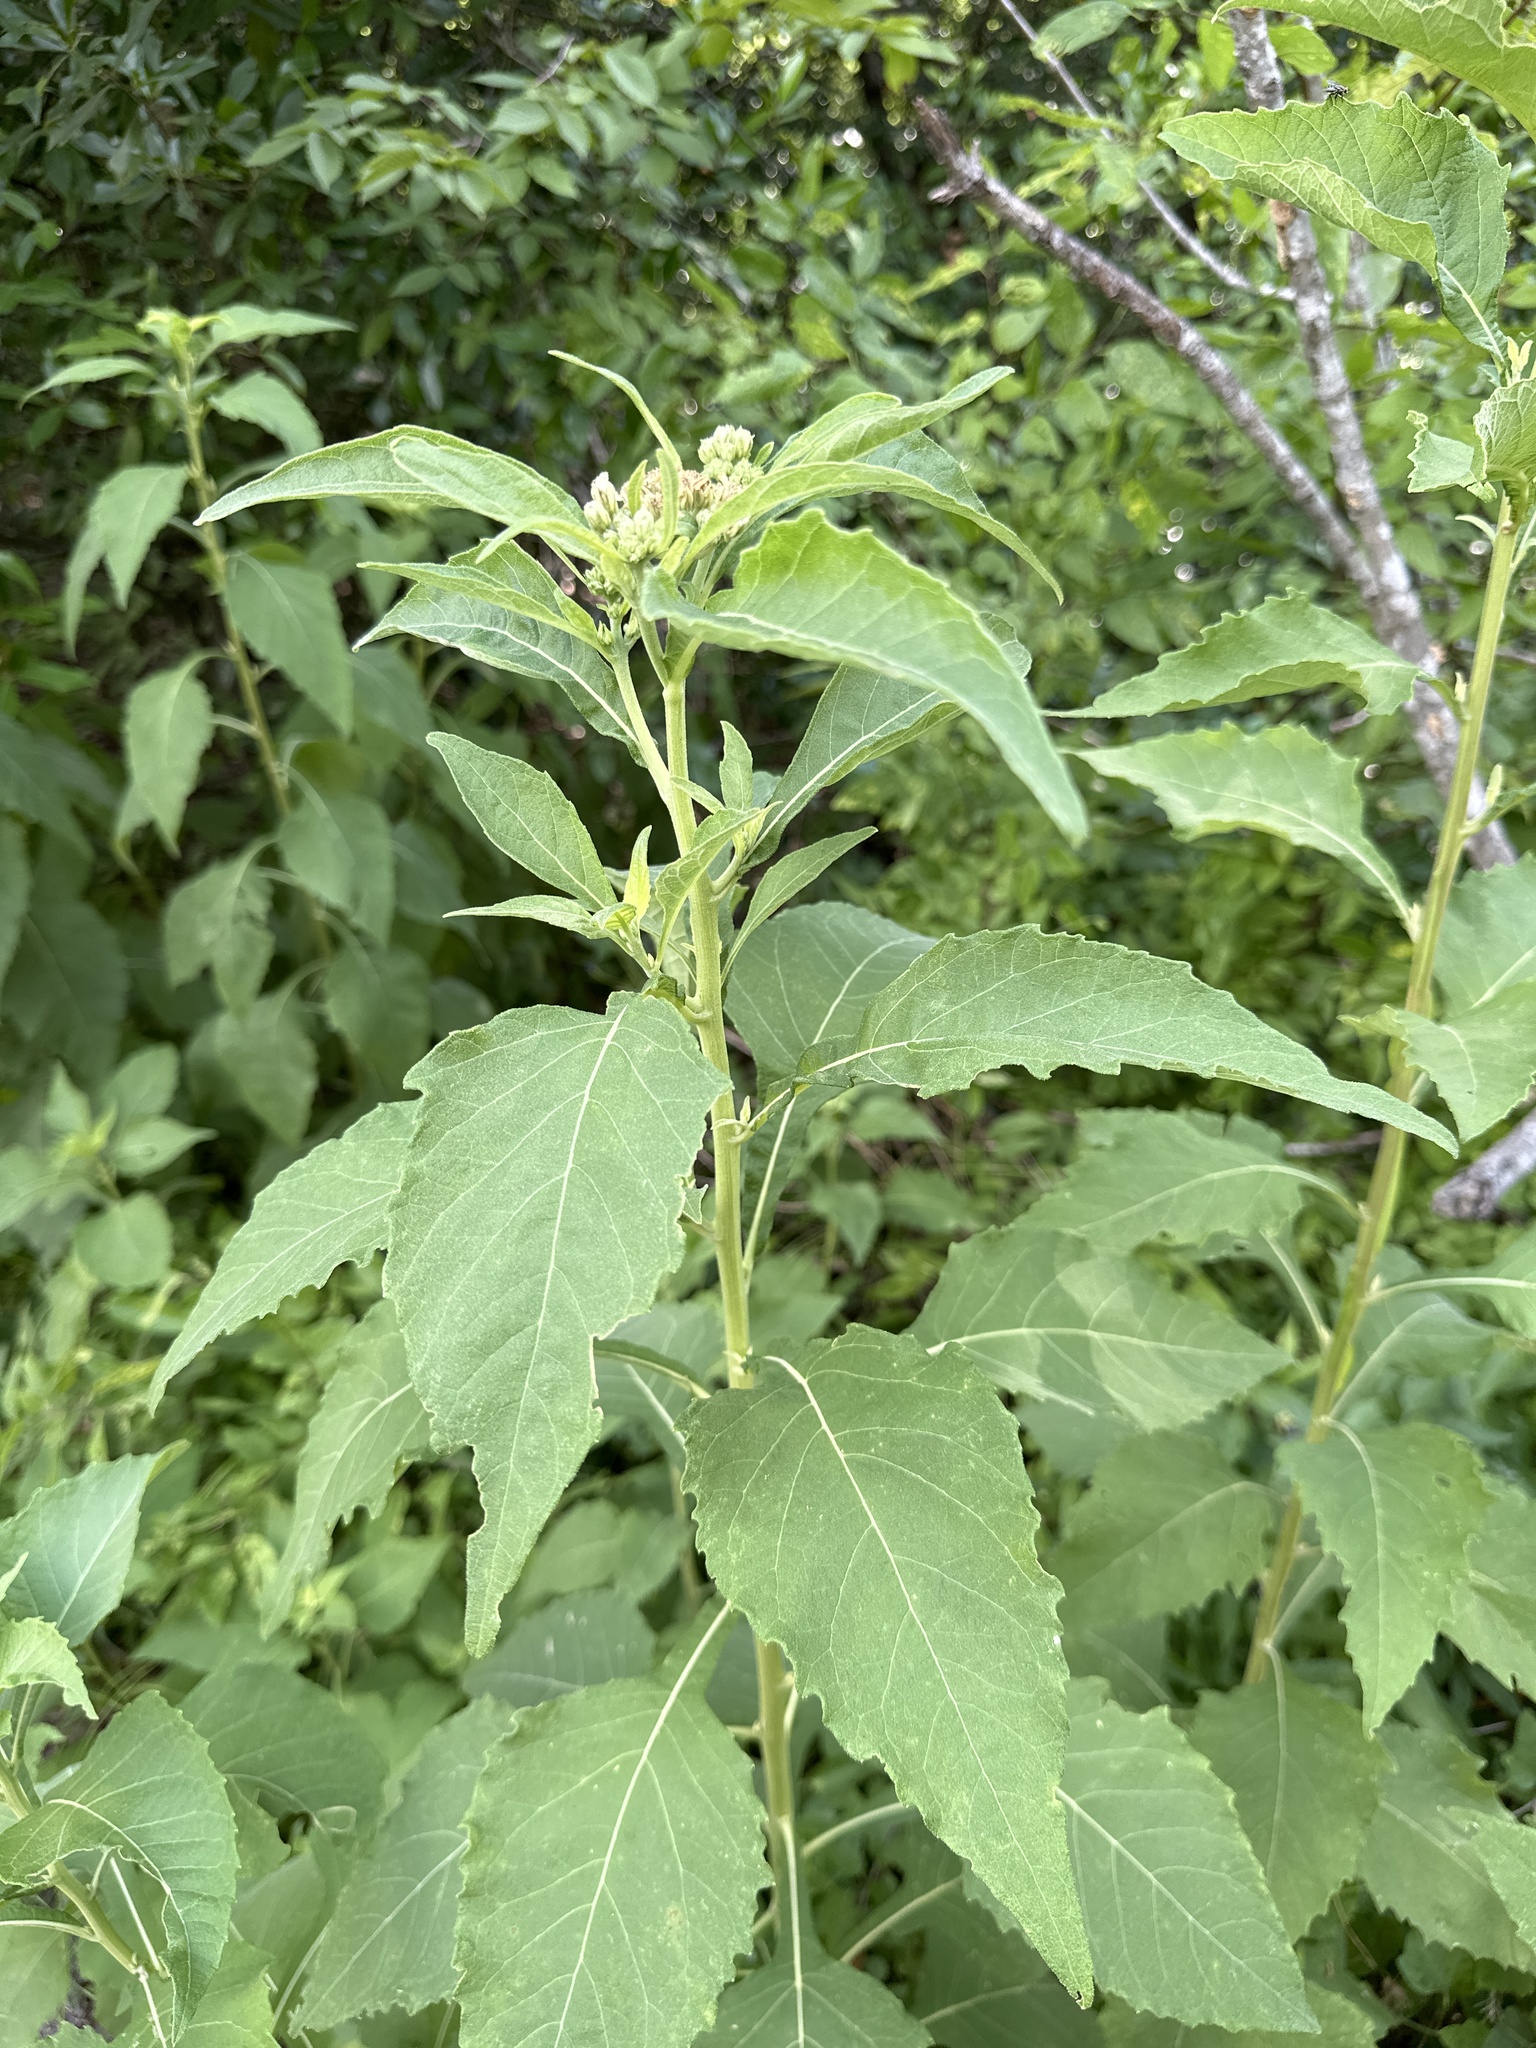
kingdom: Plantae
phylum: Tracheophyta
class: Magnoliopsida
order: Asterales
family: Asteraceae
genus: Verbesina
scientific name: Verbesina virginica
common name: Frostweed
